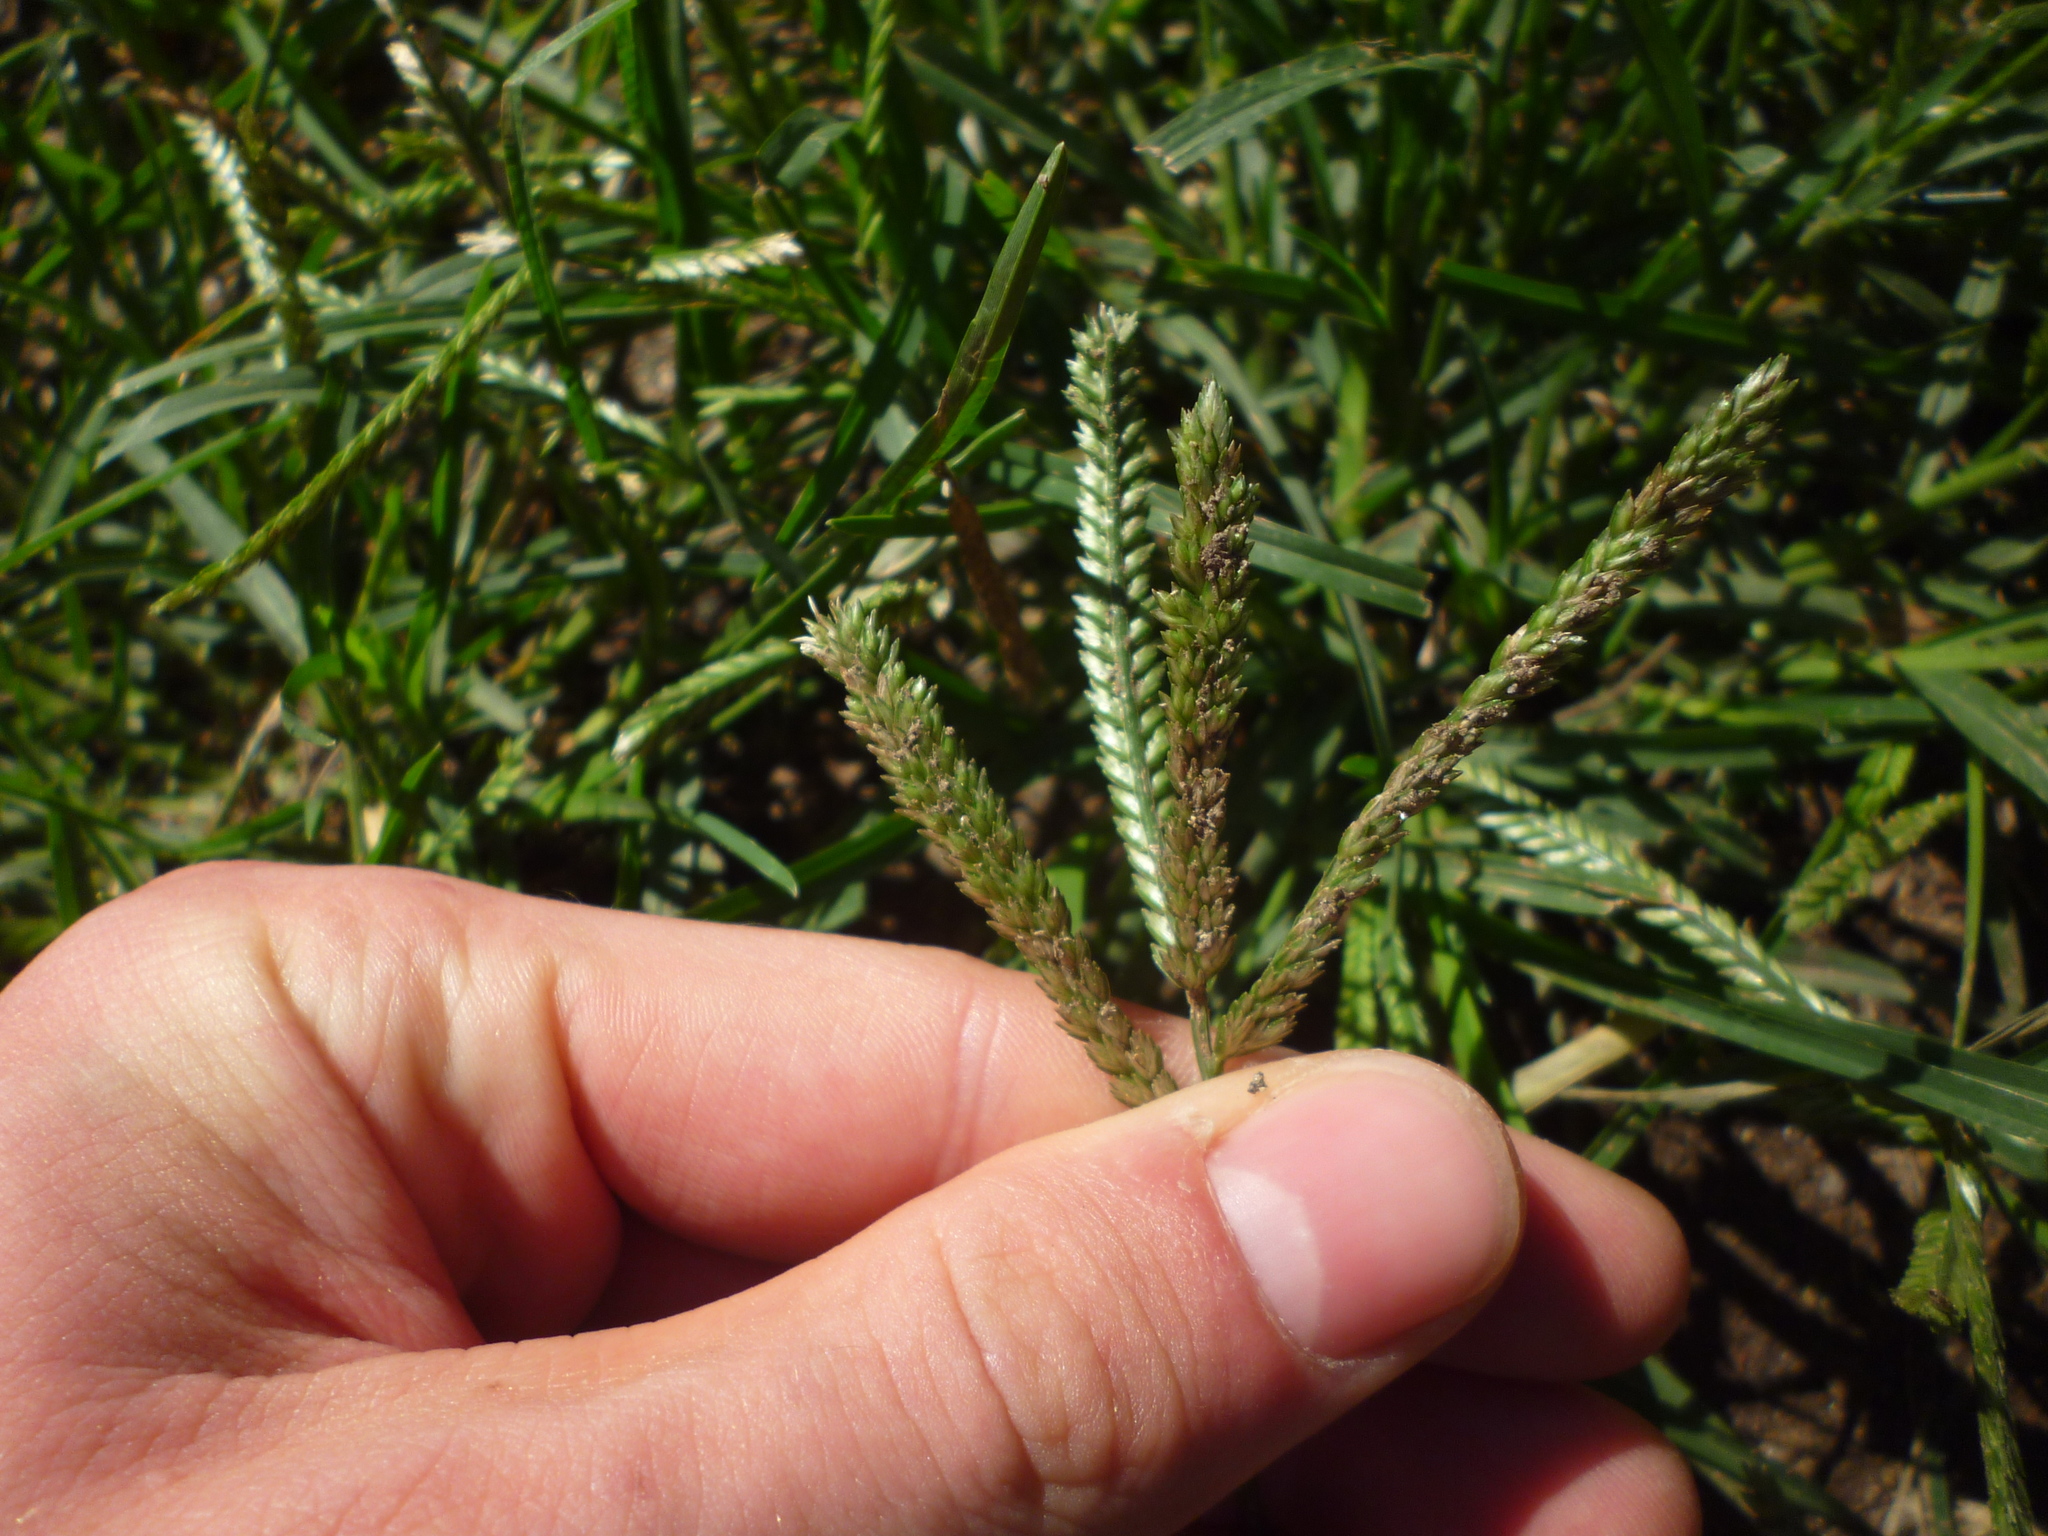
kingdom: Plantae
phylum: Tracheophyta
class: Liliopsida
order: Poales
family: Poaceae
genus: Eleusine
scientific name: Eleusine indica
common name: Yard-grass
